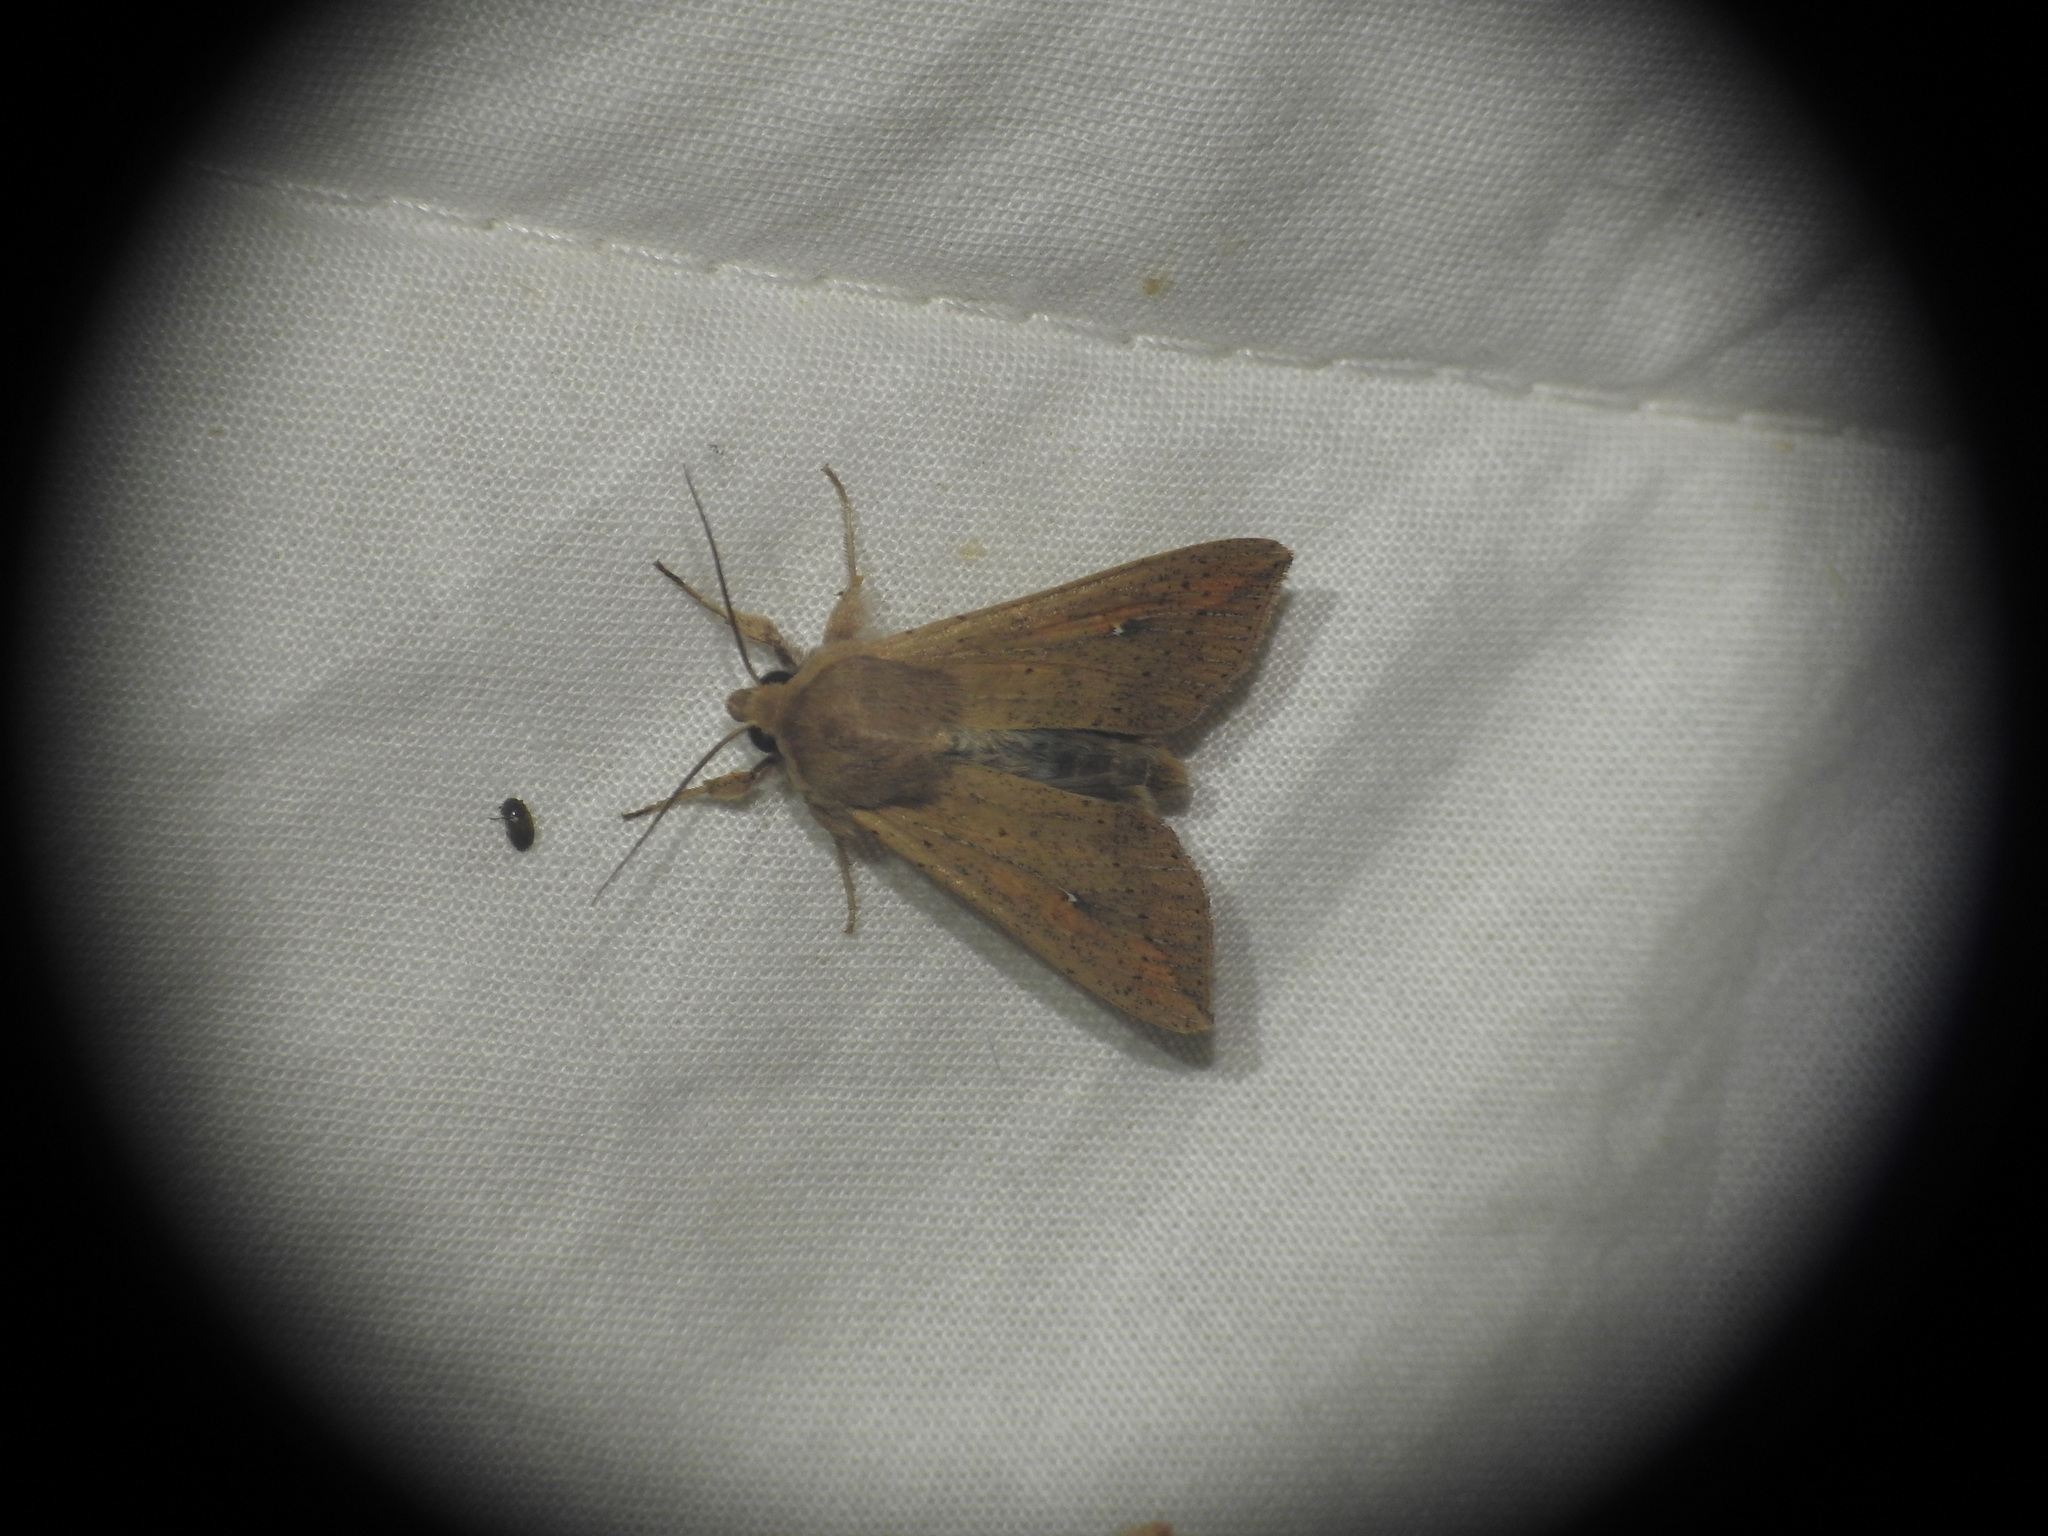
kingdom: Animalia
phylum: Arthropoda
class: Insecta
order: Lepidoptera
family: Noctuidae
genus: Mythimna
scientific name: Mythimna unipuncta
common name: White-speck
